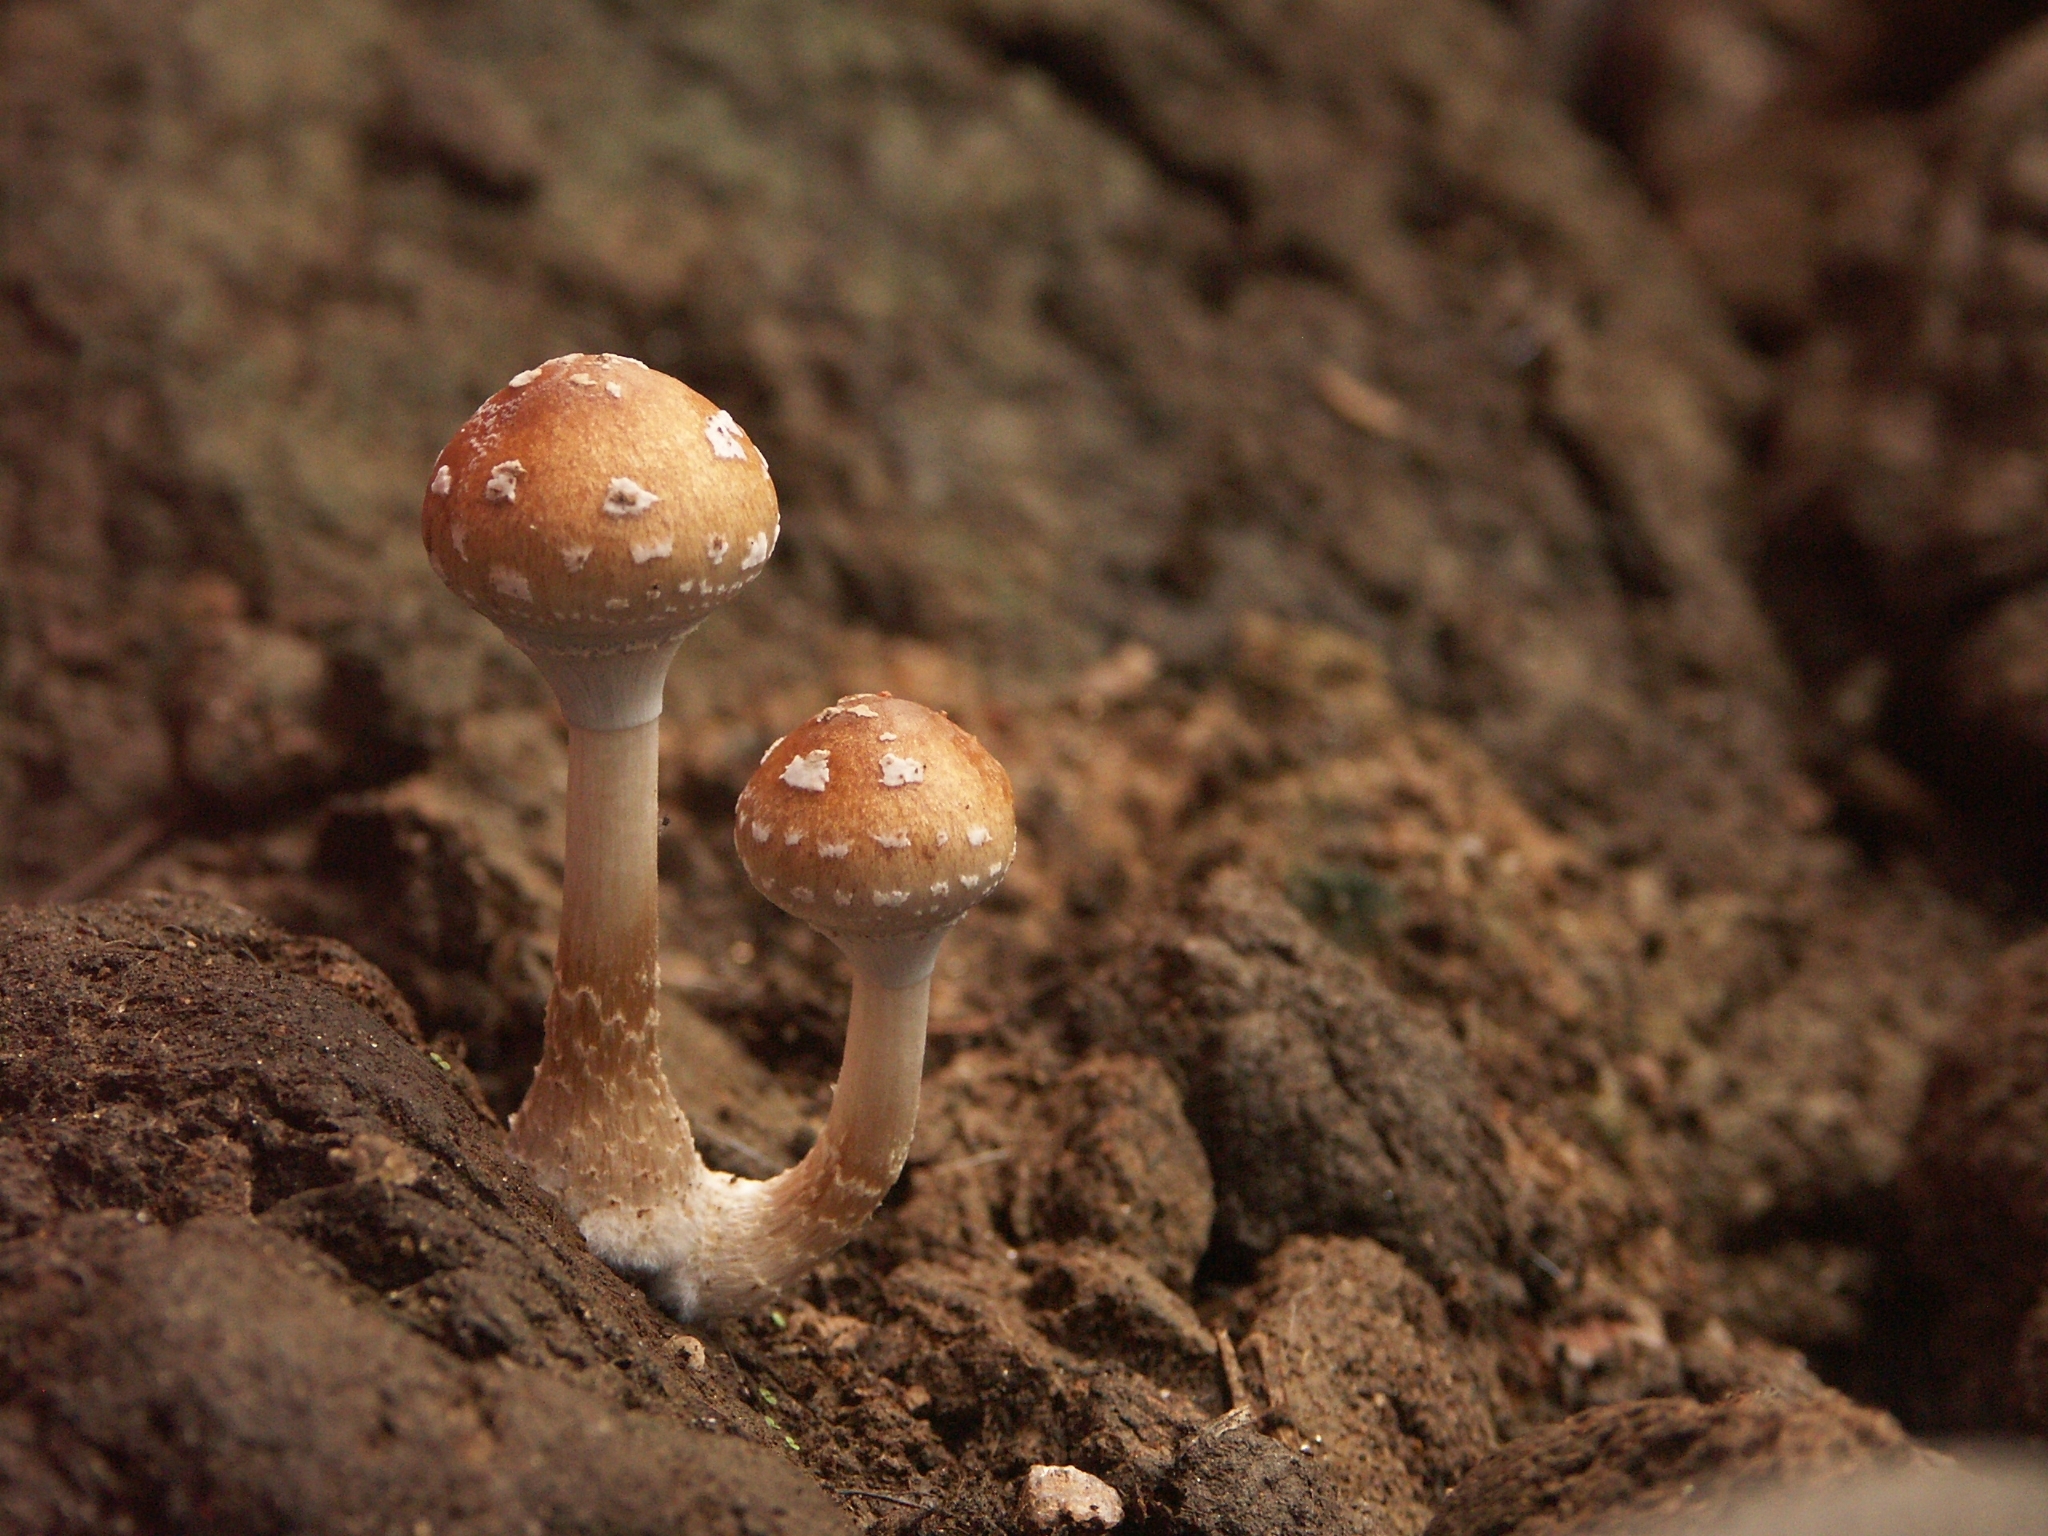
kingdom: Fungi
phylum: Basidiomycota
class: Agaricomycetes
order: Agaricales
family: Hymenogastraceae
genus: Psilocybe
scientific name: Psilocybe cubensis
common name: Golden brownie
